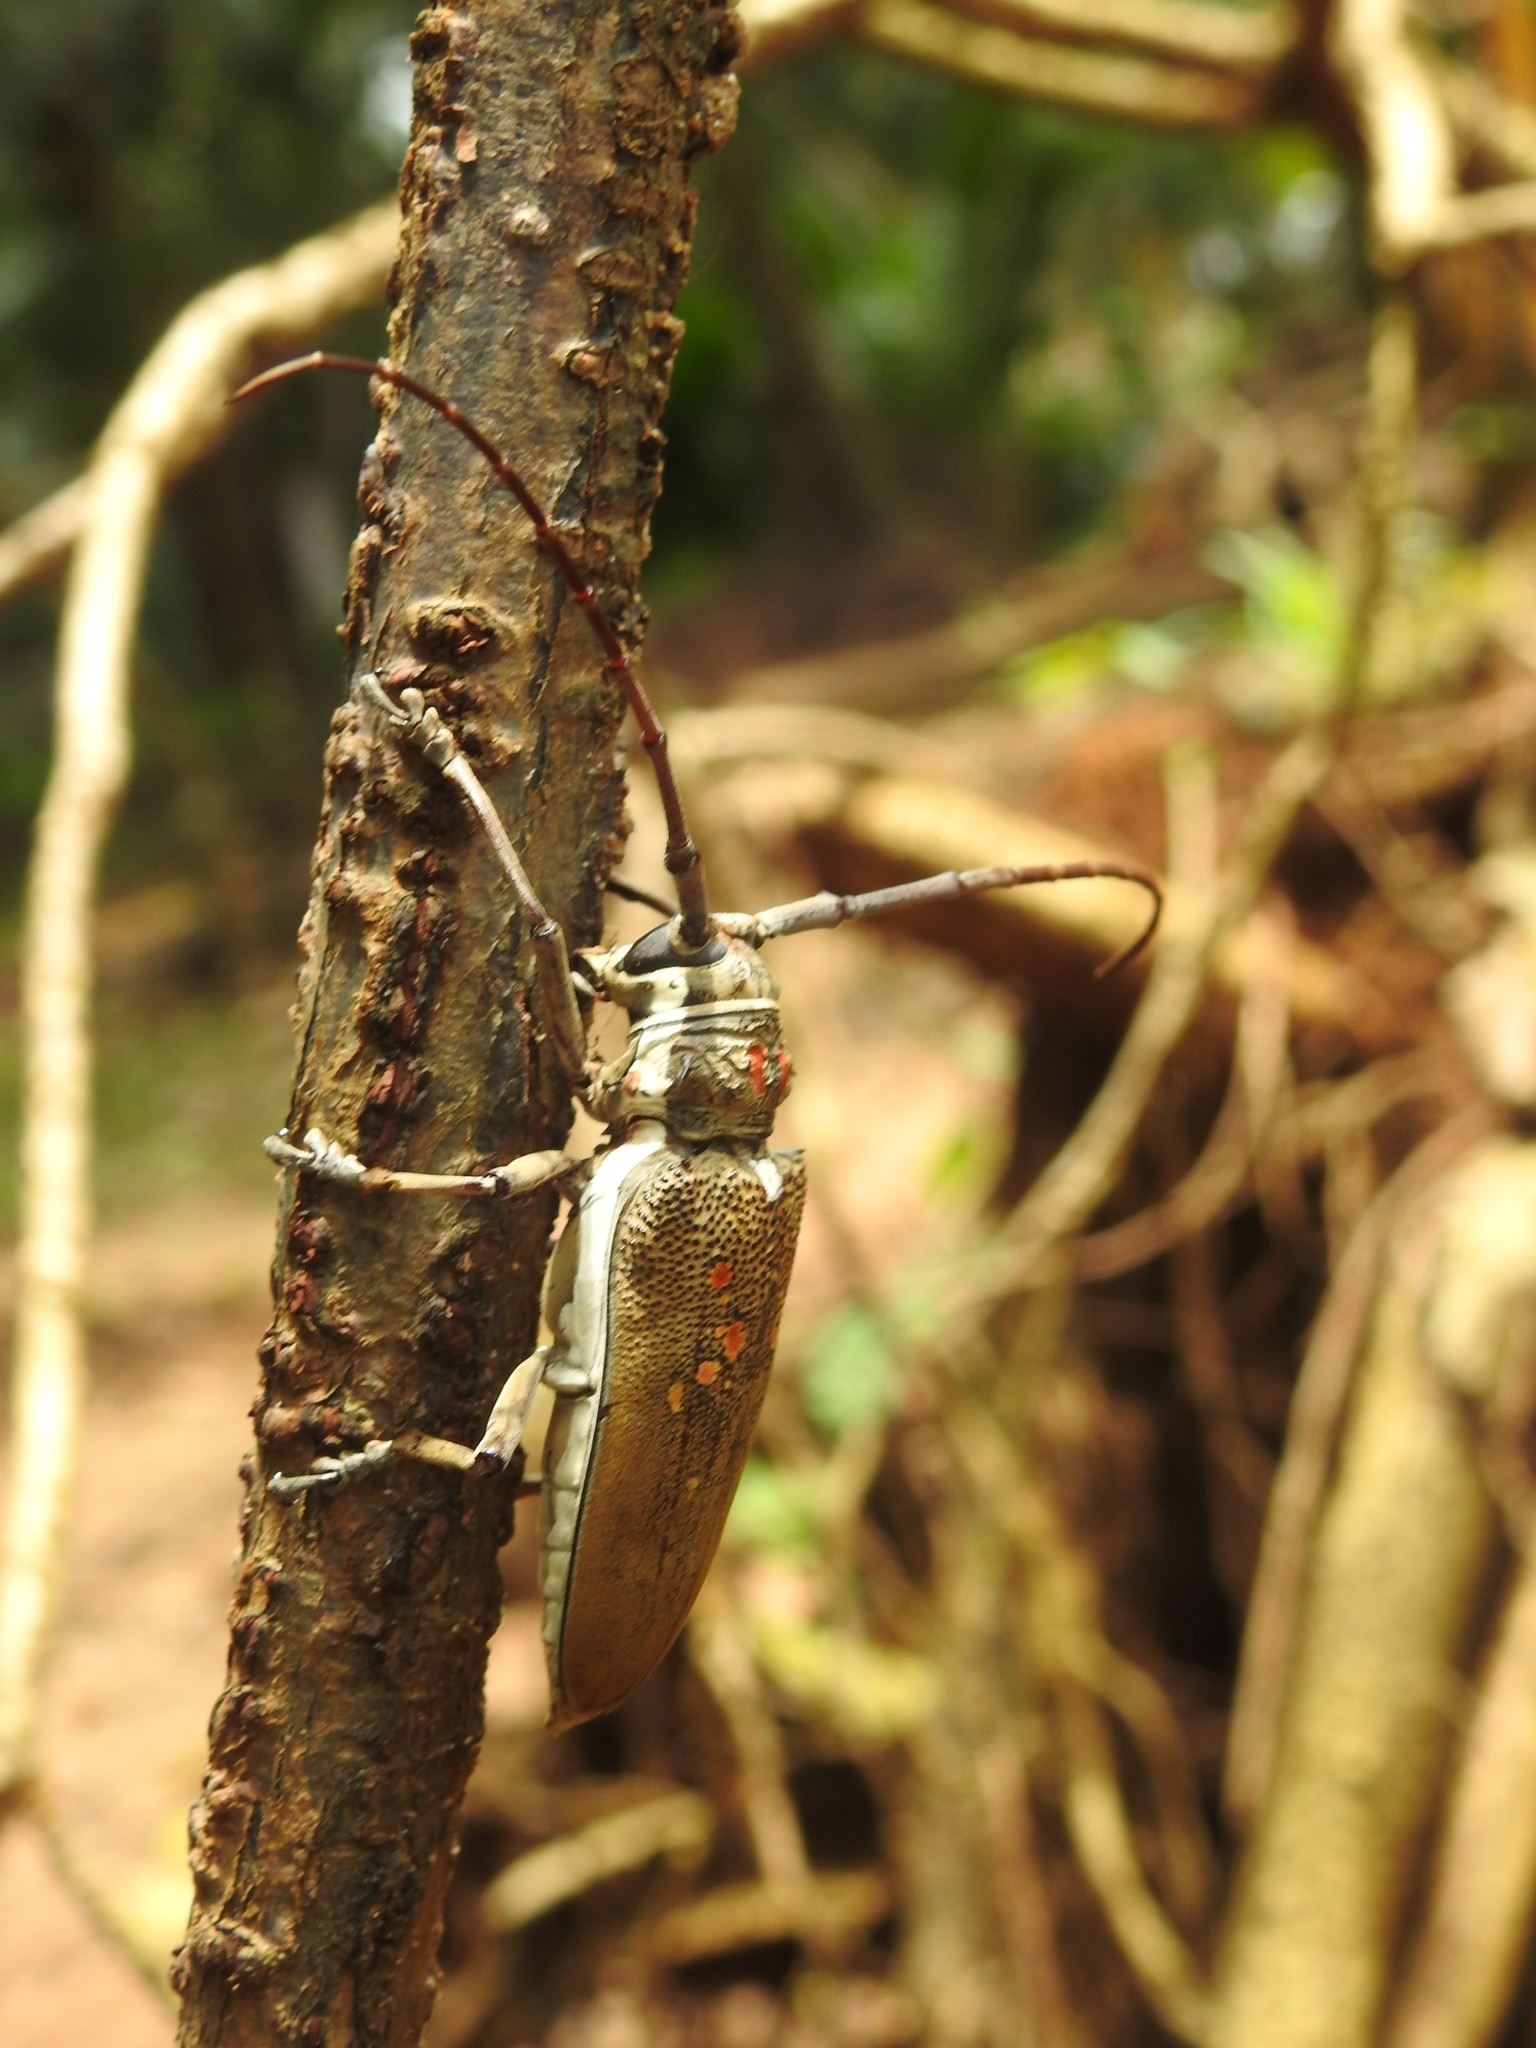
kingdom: Animalia
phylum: Arthropoda
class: Insecta
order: Coleoptera
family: Cerambycidae
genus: Batocera
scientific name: Batocera rufomaculata
